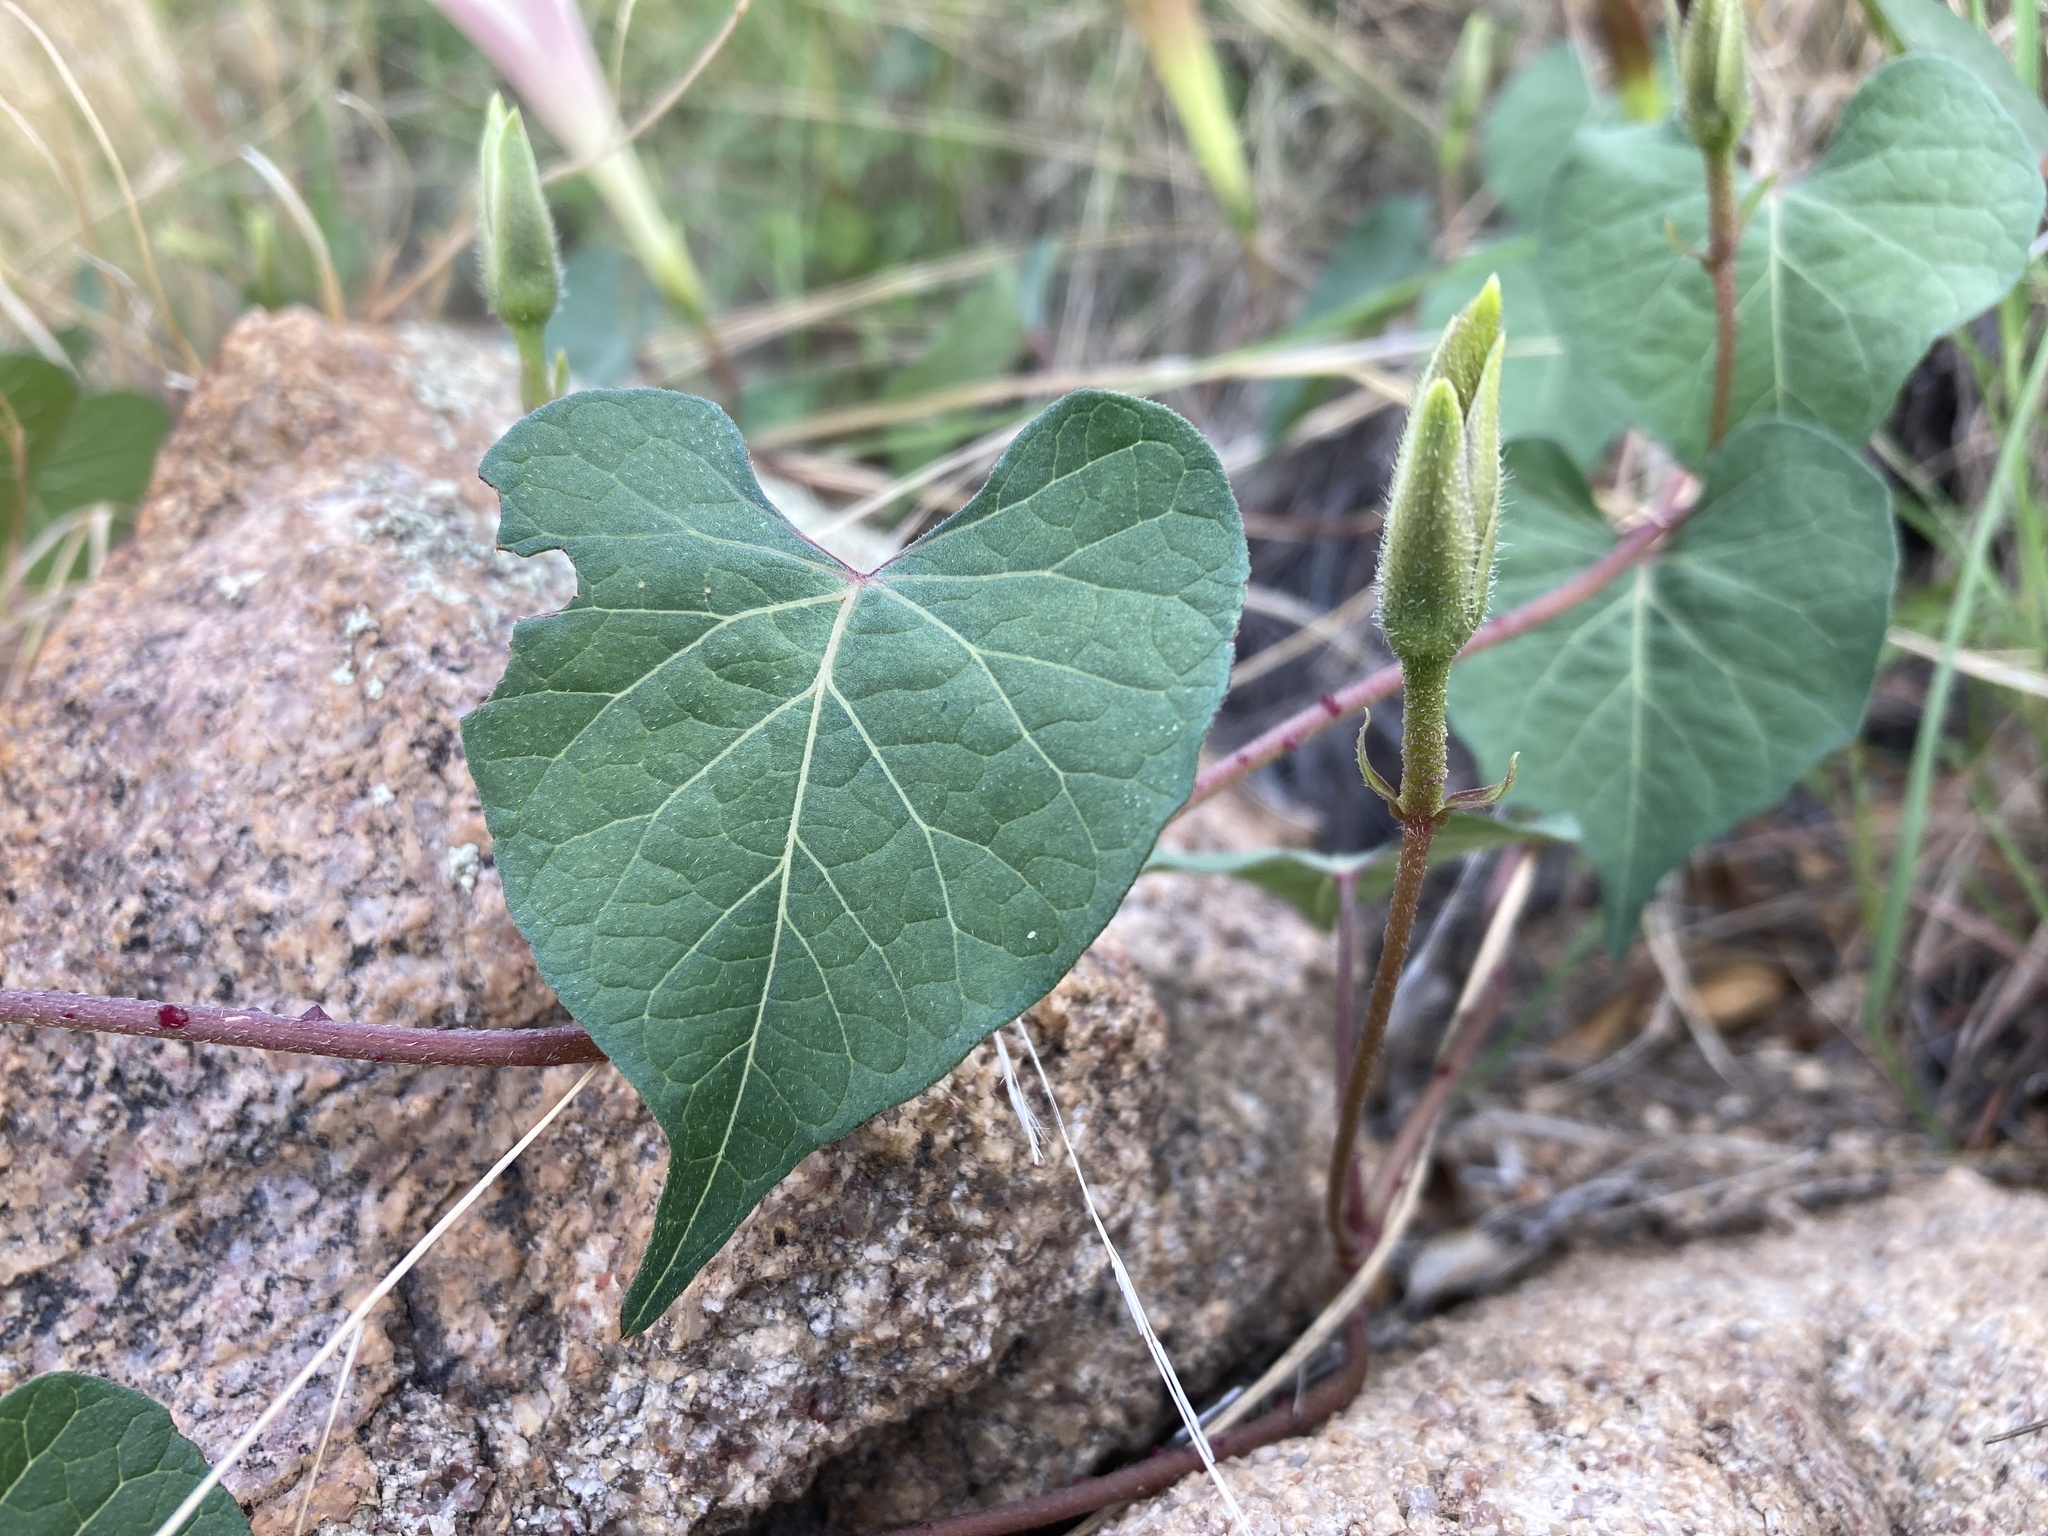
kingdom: Plantae
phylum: Tracheophyta
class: Magnoliopsida
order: Solanales
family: Convolvulaceae
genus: Ipomoea
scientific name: Ipomoea gilana
